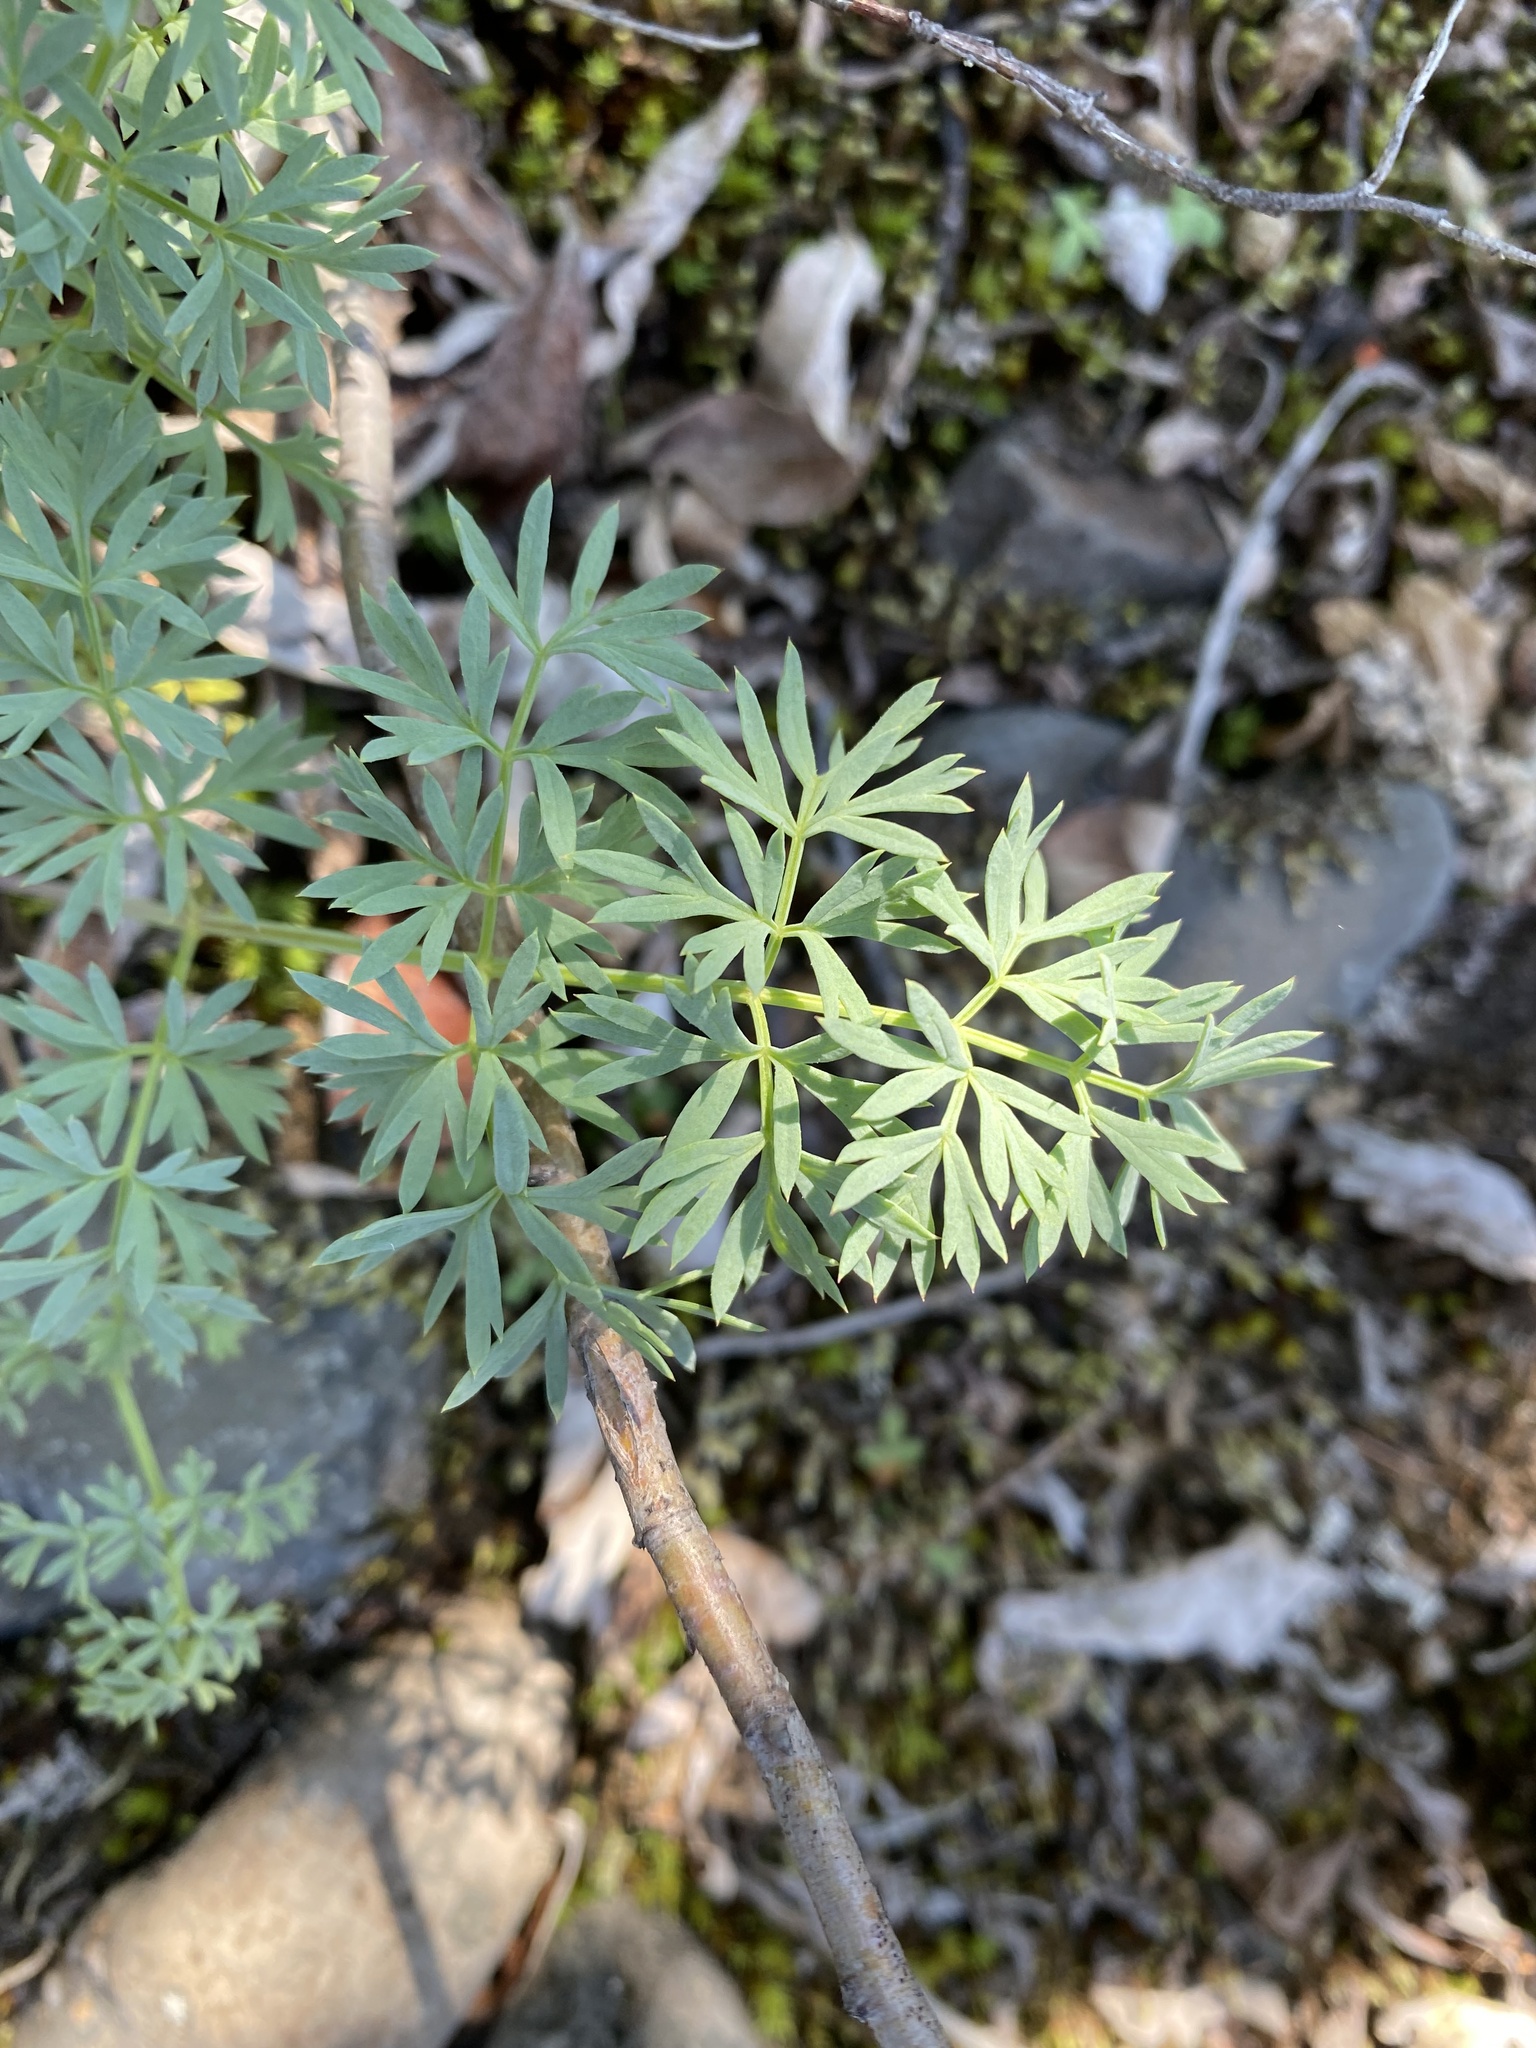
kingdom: Plantae
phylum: Tracheophyta
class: Magnoliopsida
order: Apiales
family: Apiaceae
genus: Pachypleurum
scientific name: Pachypleurum mutellinoides
